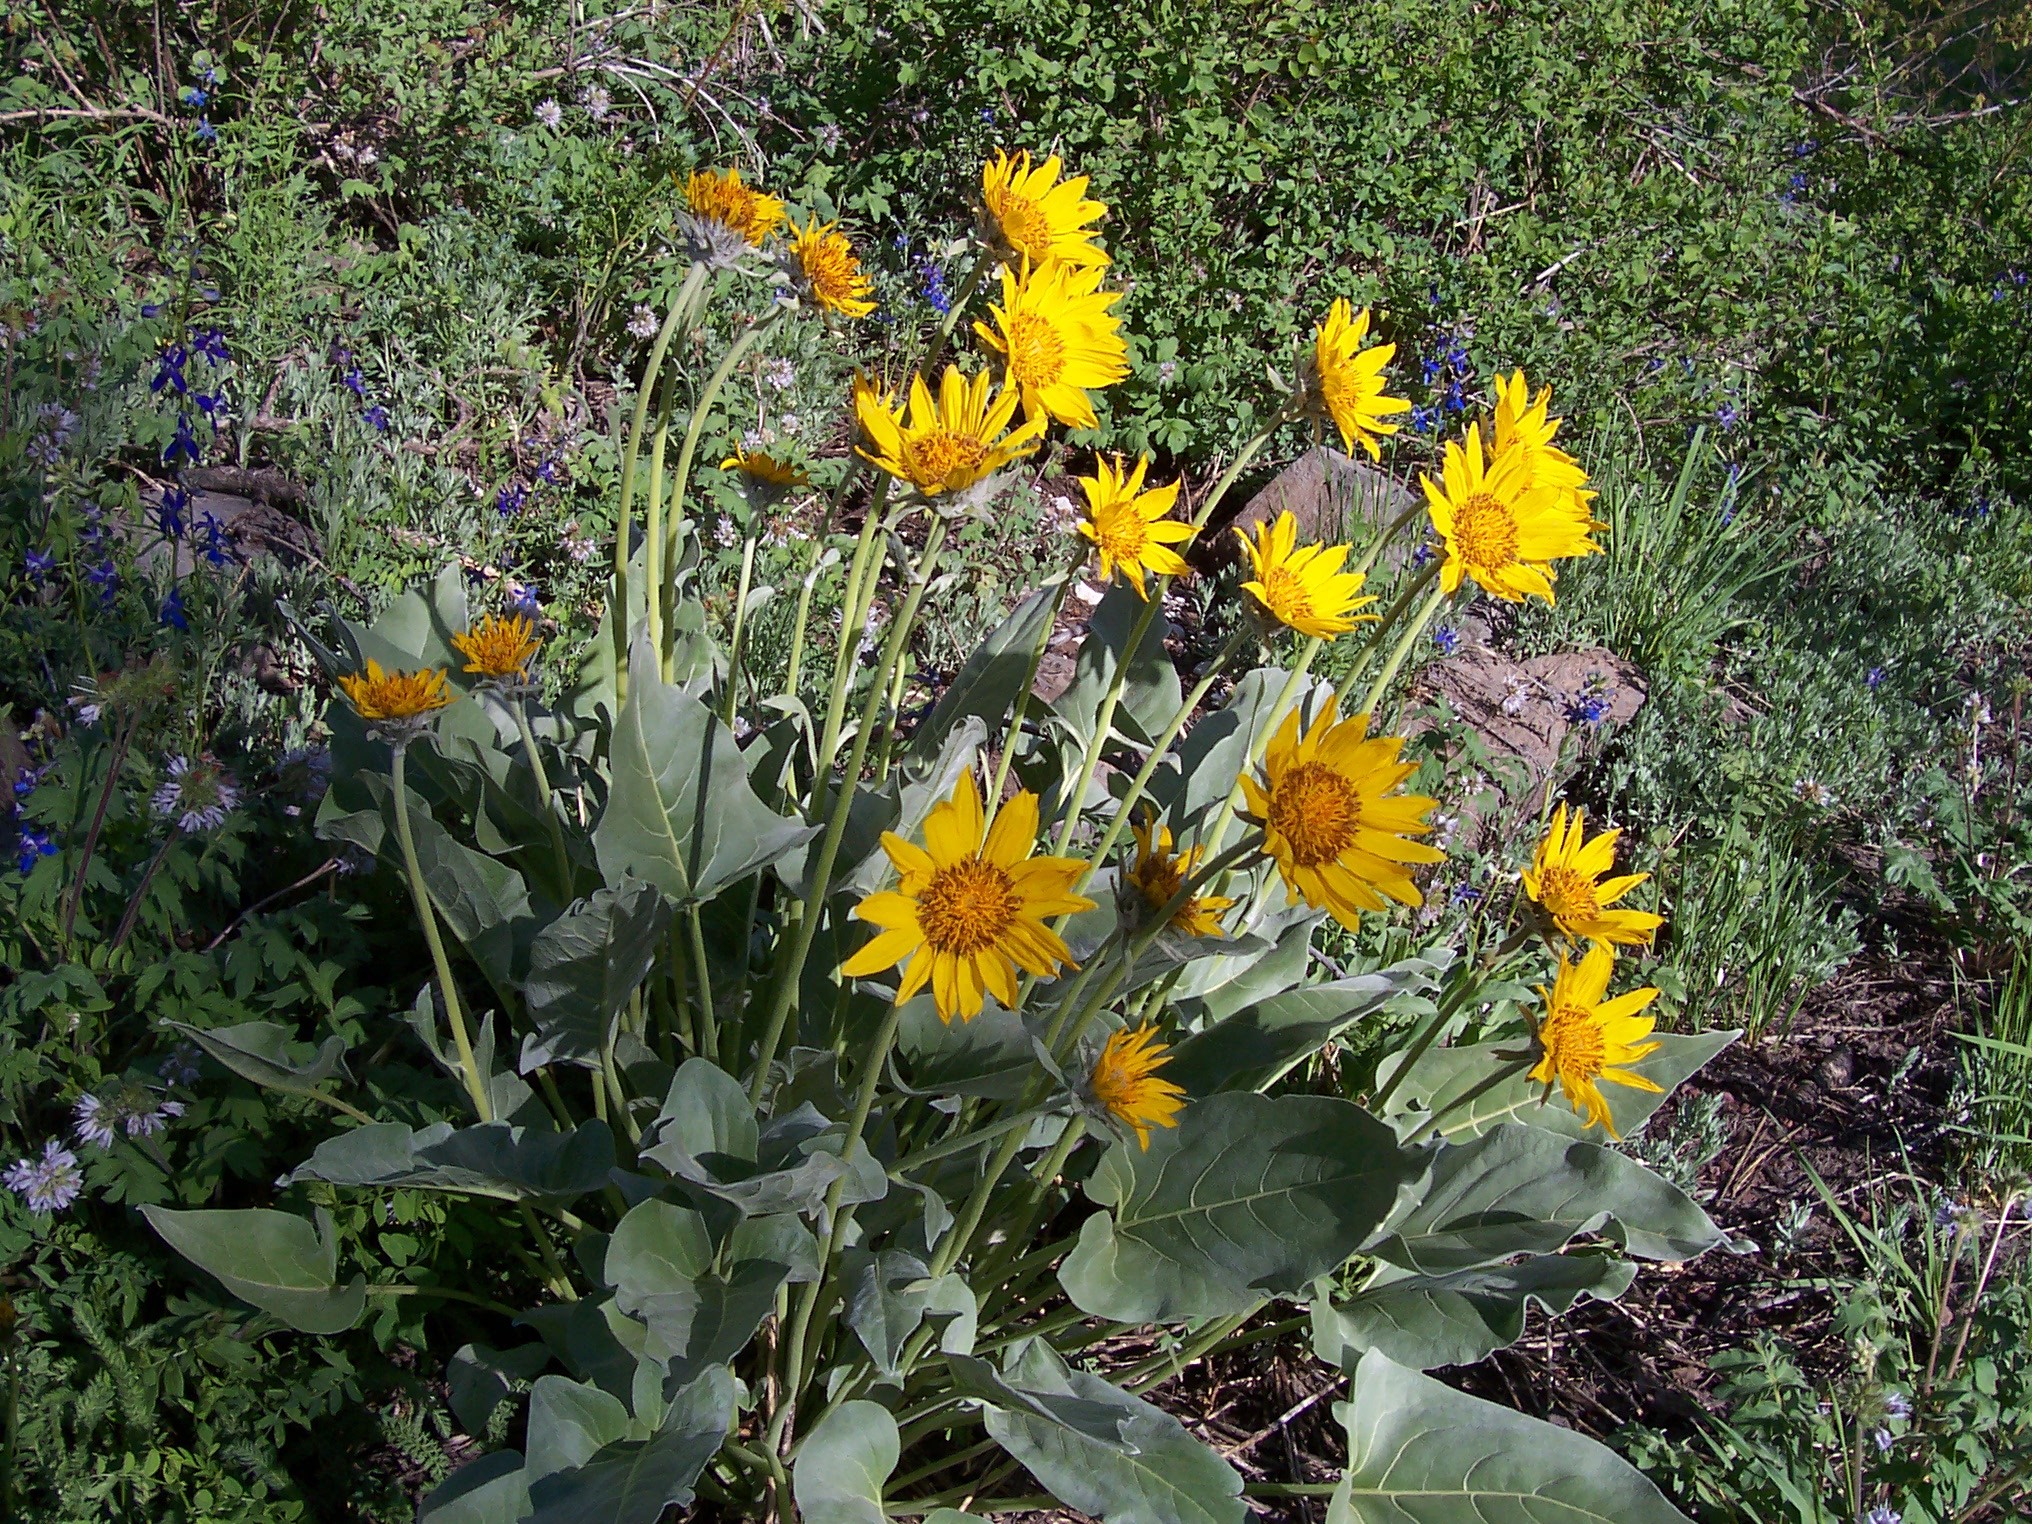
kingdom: Plantae
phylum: Tracheophyta
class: Magnoliopsida
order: Asterales
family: Asteraceae
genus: Wyethia
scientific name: Wyethia sagittata
